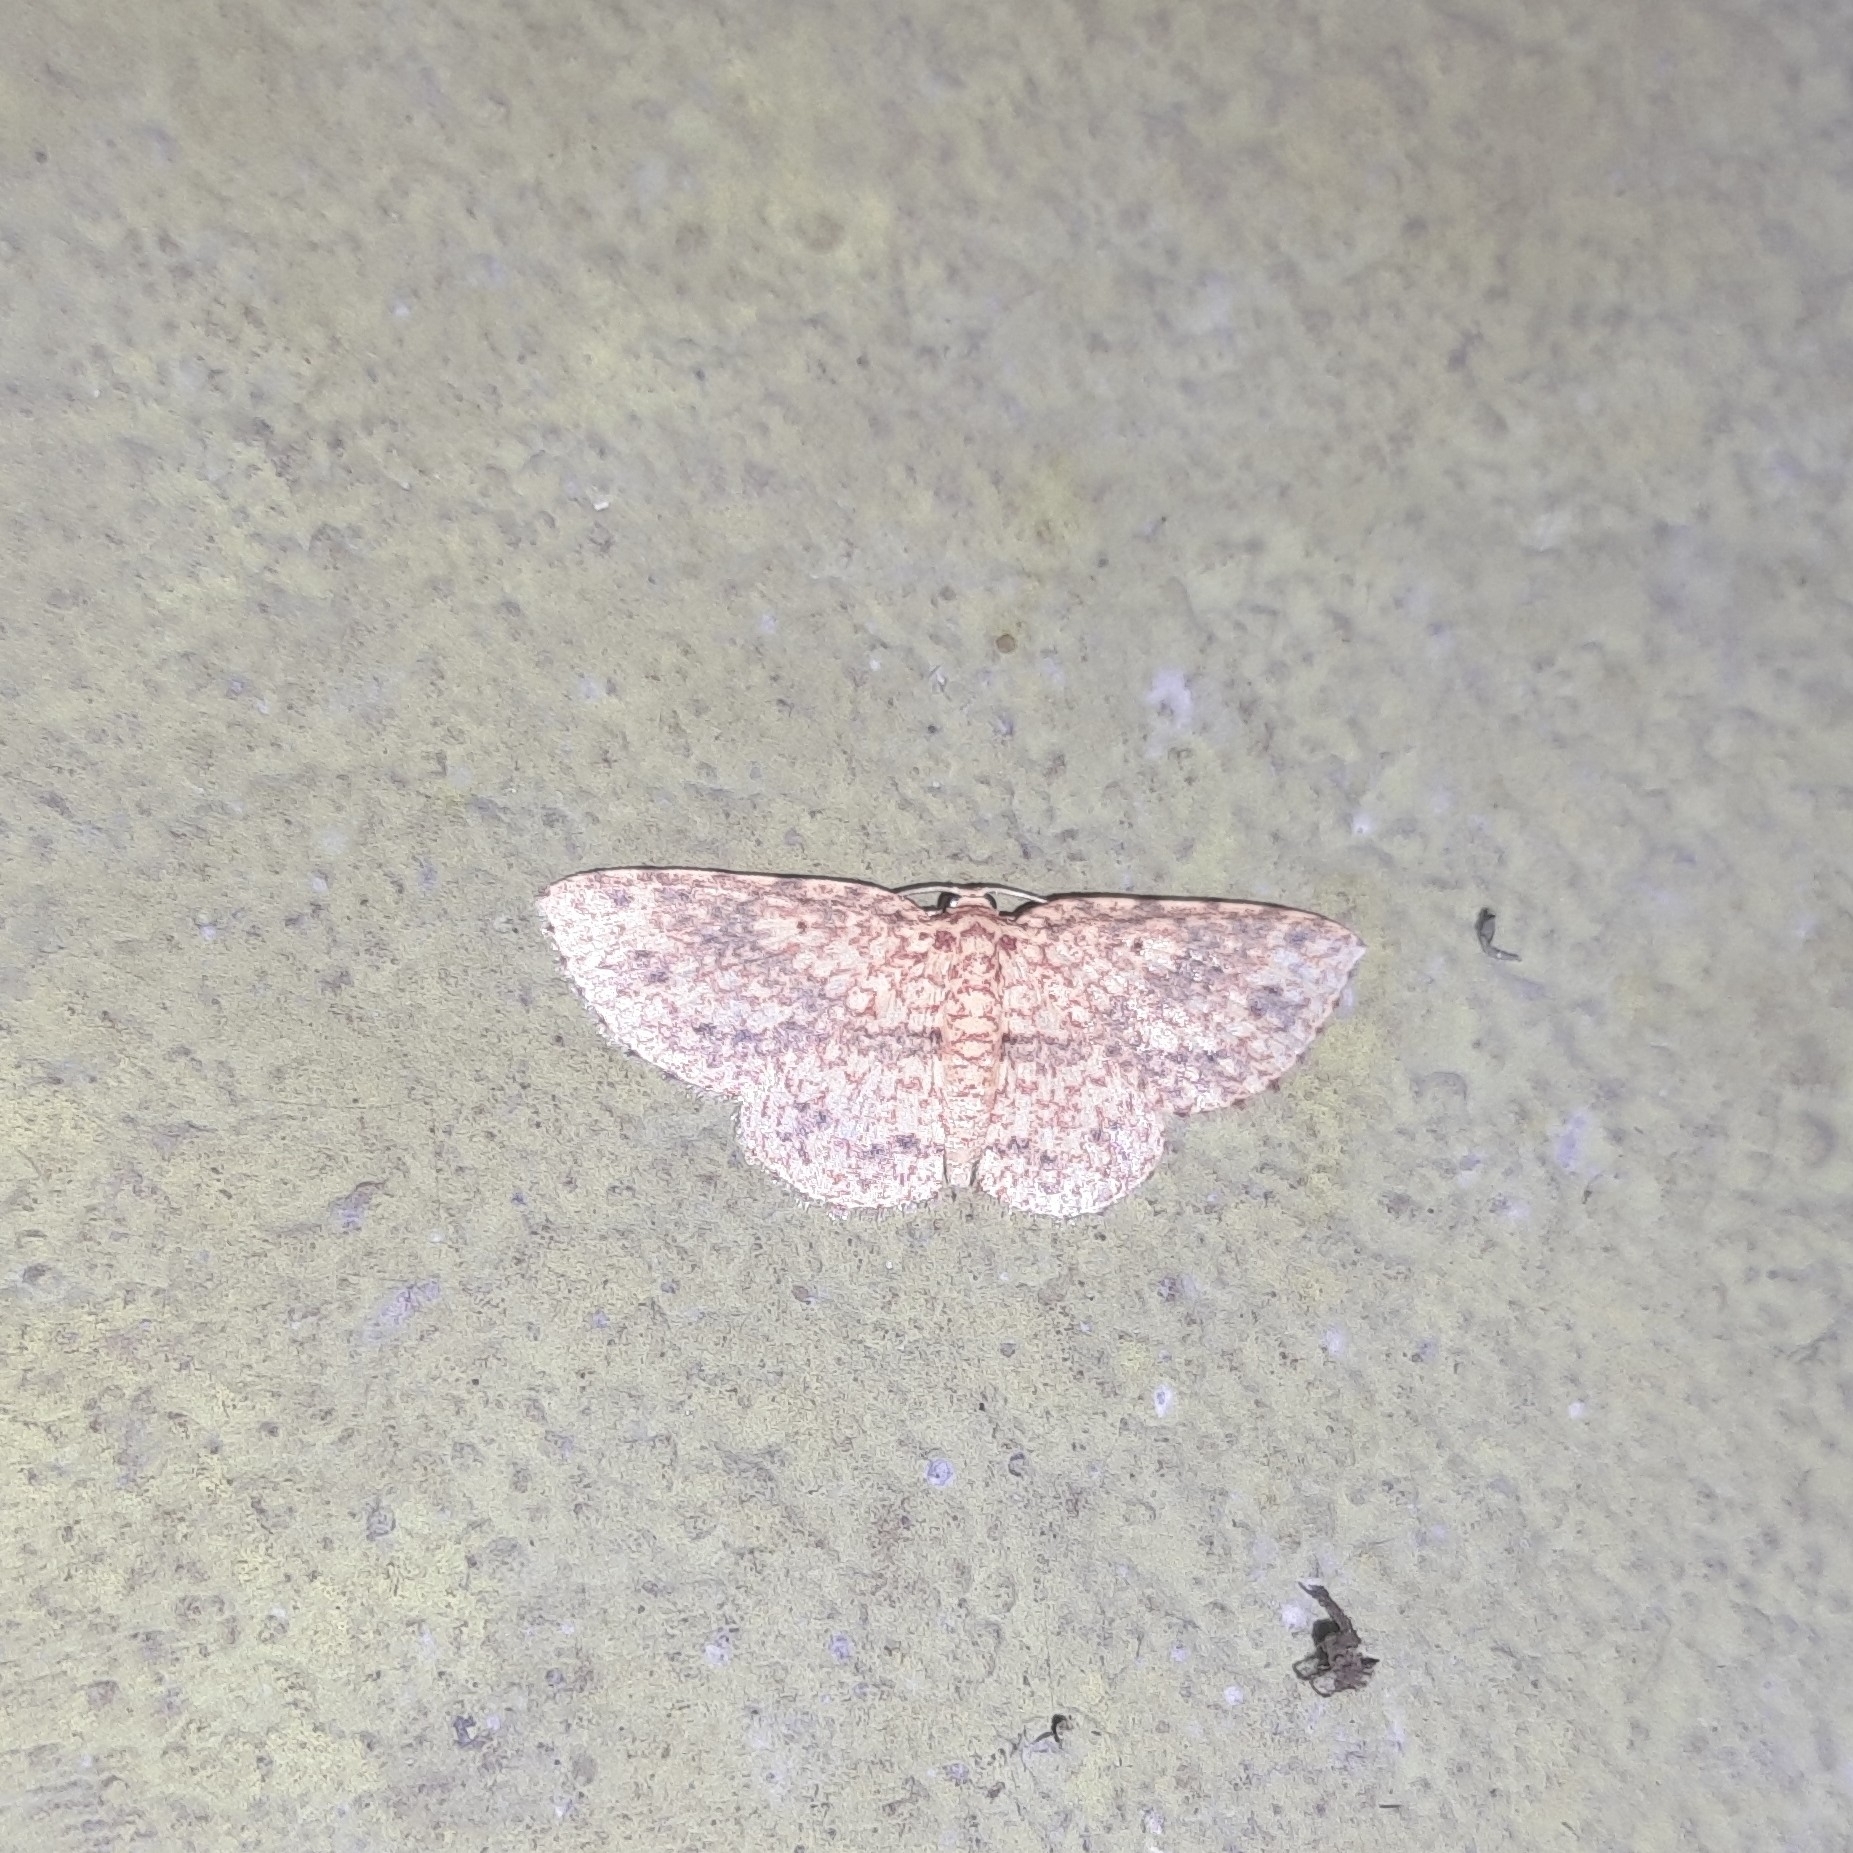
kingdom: Animalia
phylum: Arthropoda
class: Insecta
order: Lepidoptera
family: Geometridae
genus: Borbacha
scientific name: Borbacha pardaria
